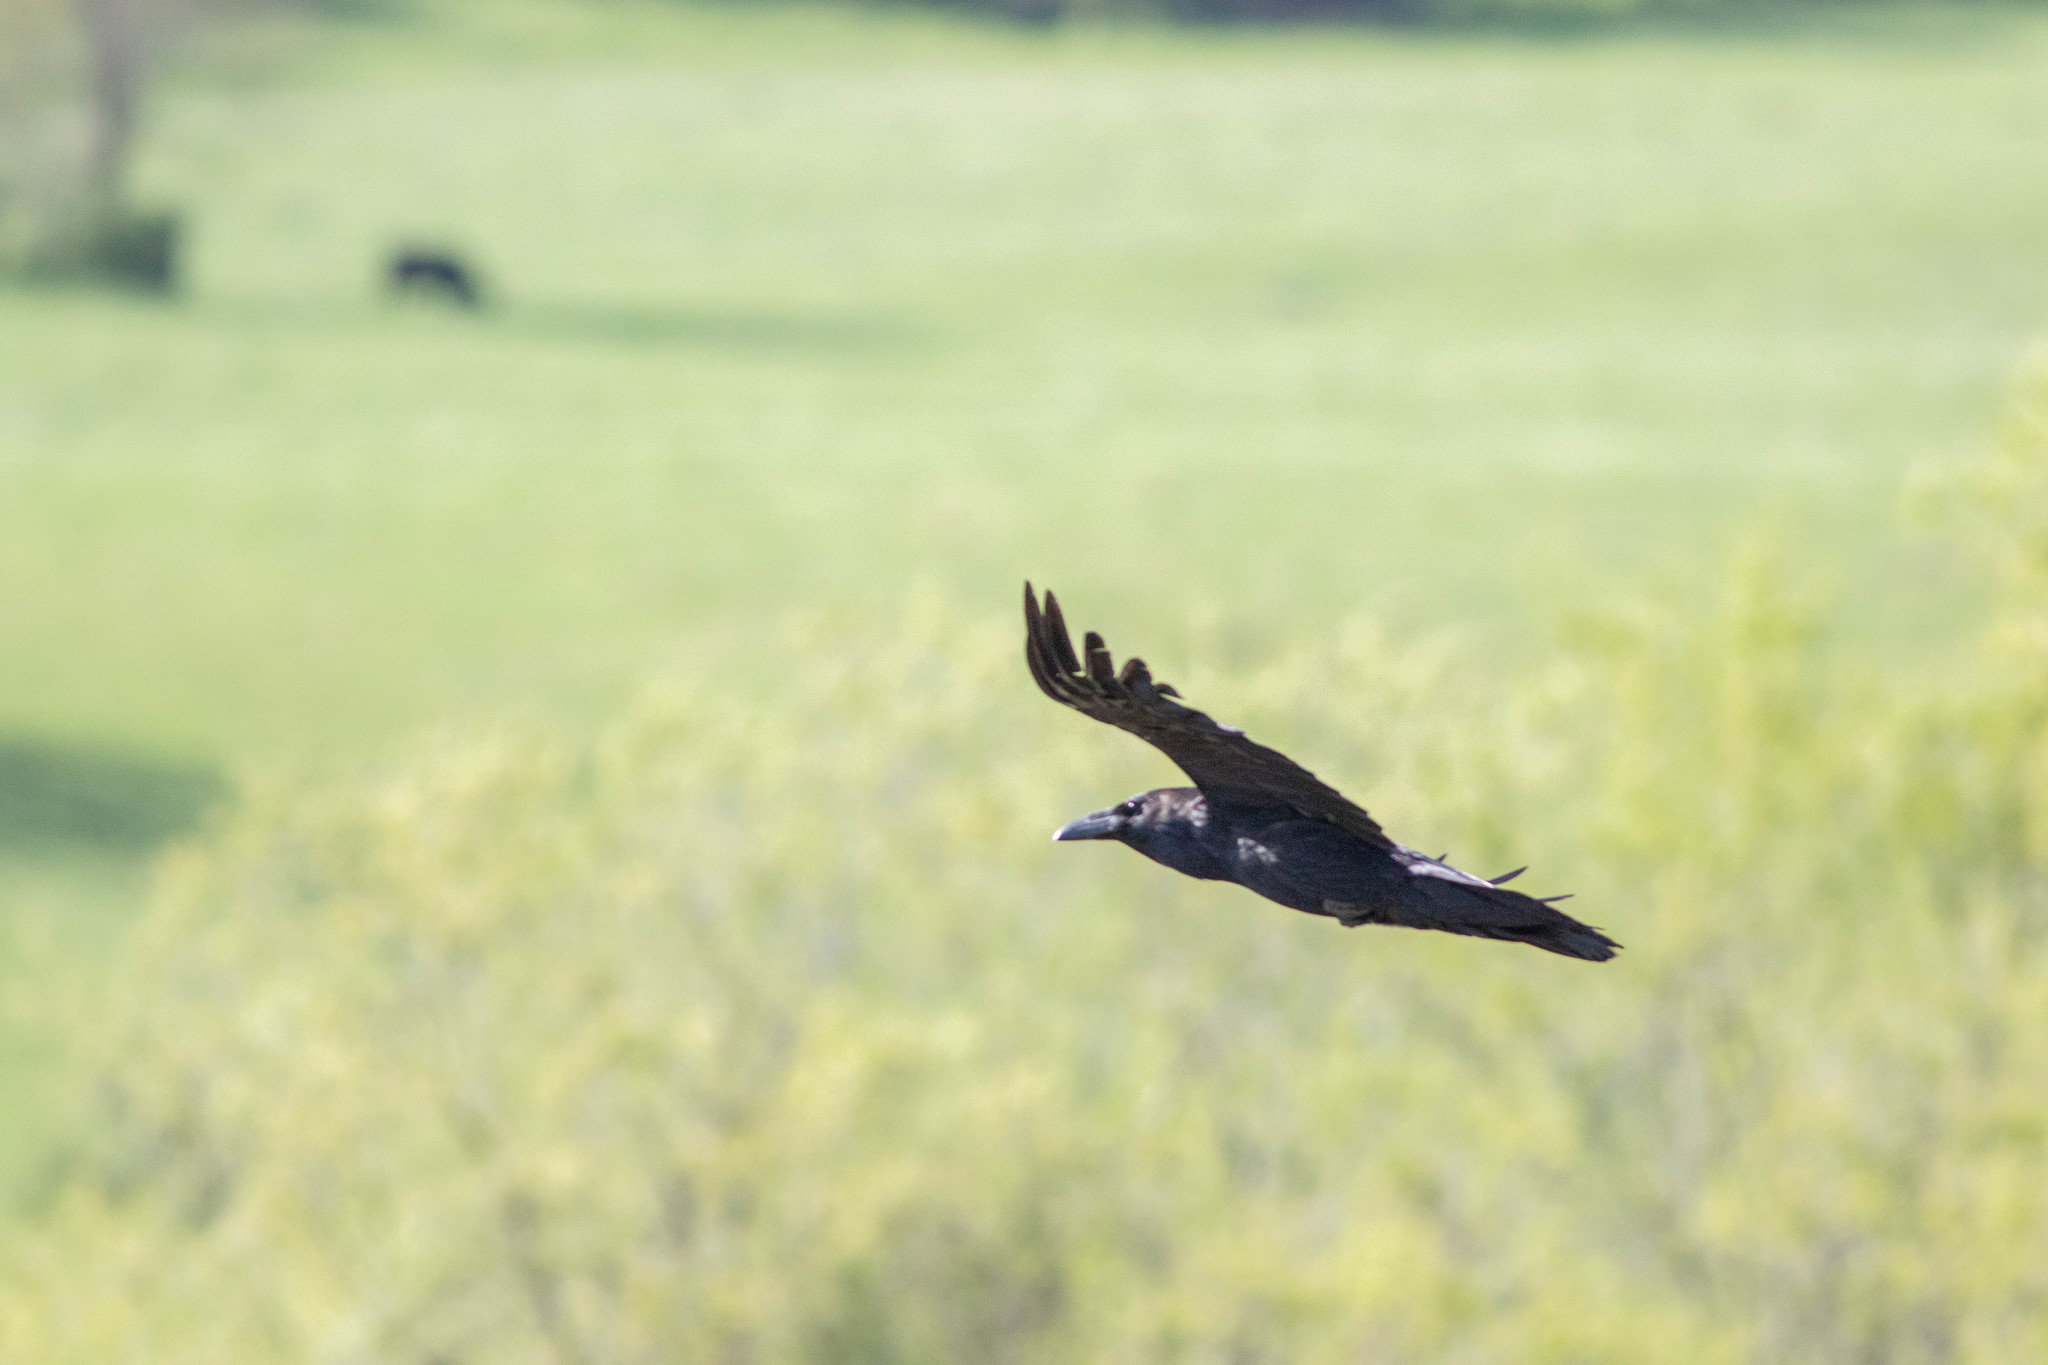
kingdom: Animalia
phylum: Chordata
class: Aves
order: Passeriformes
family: Corvidae
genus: Corvus
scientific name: Corvus corax
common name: Common raven
